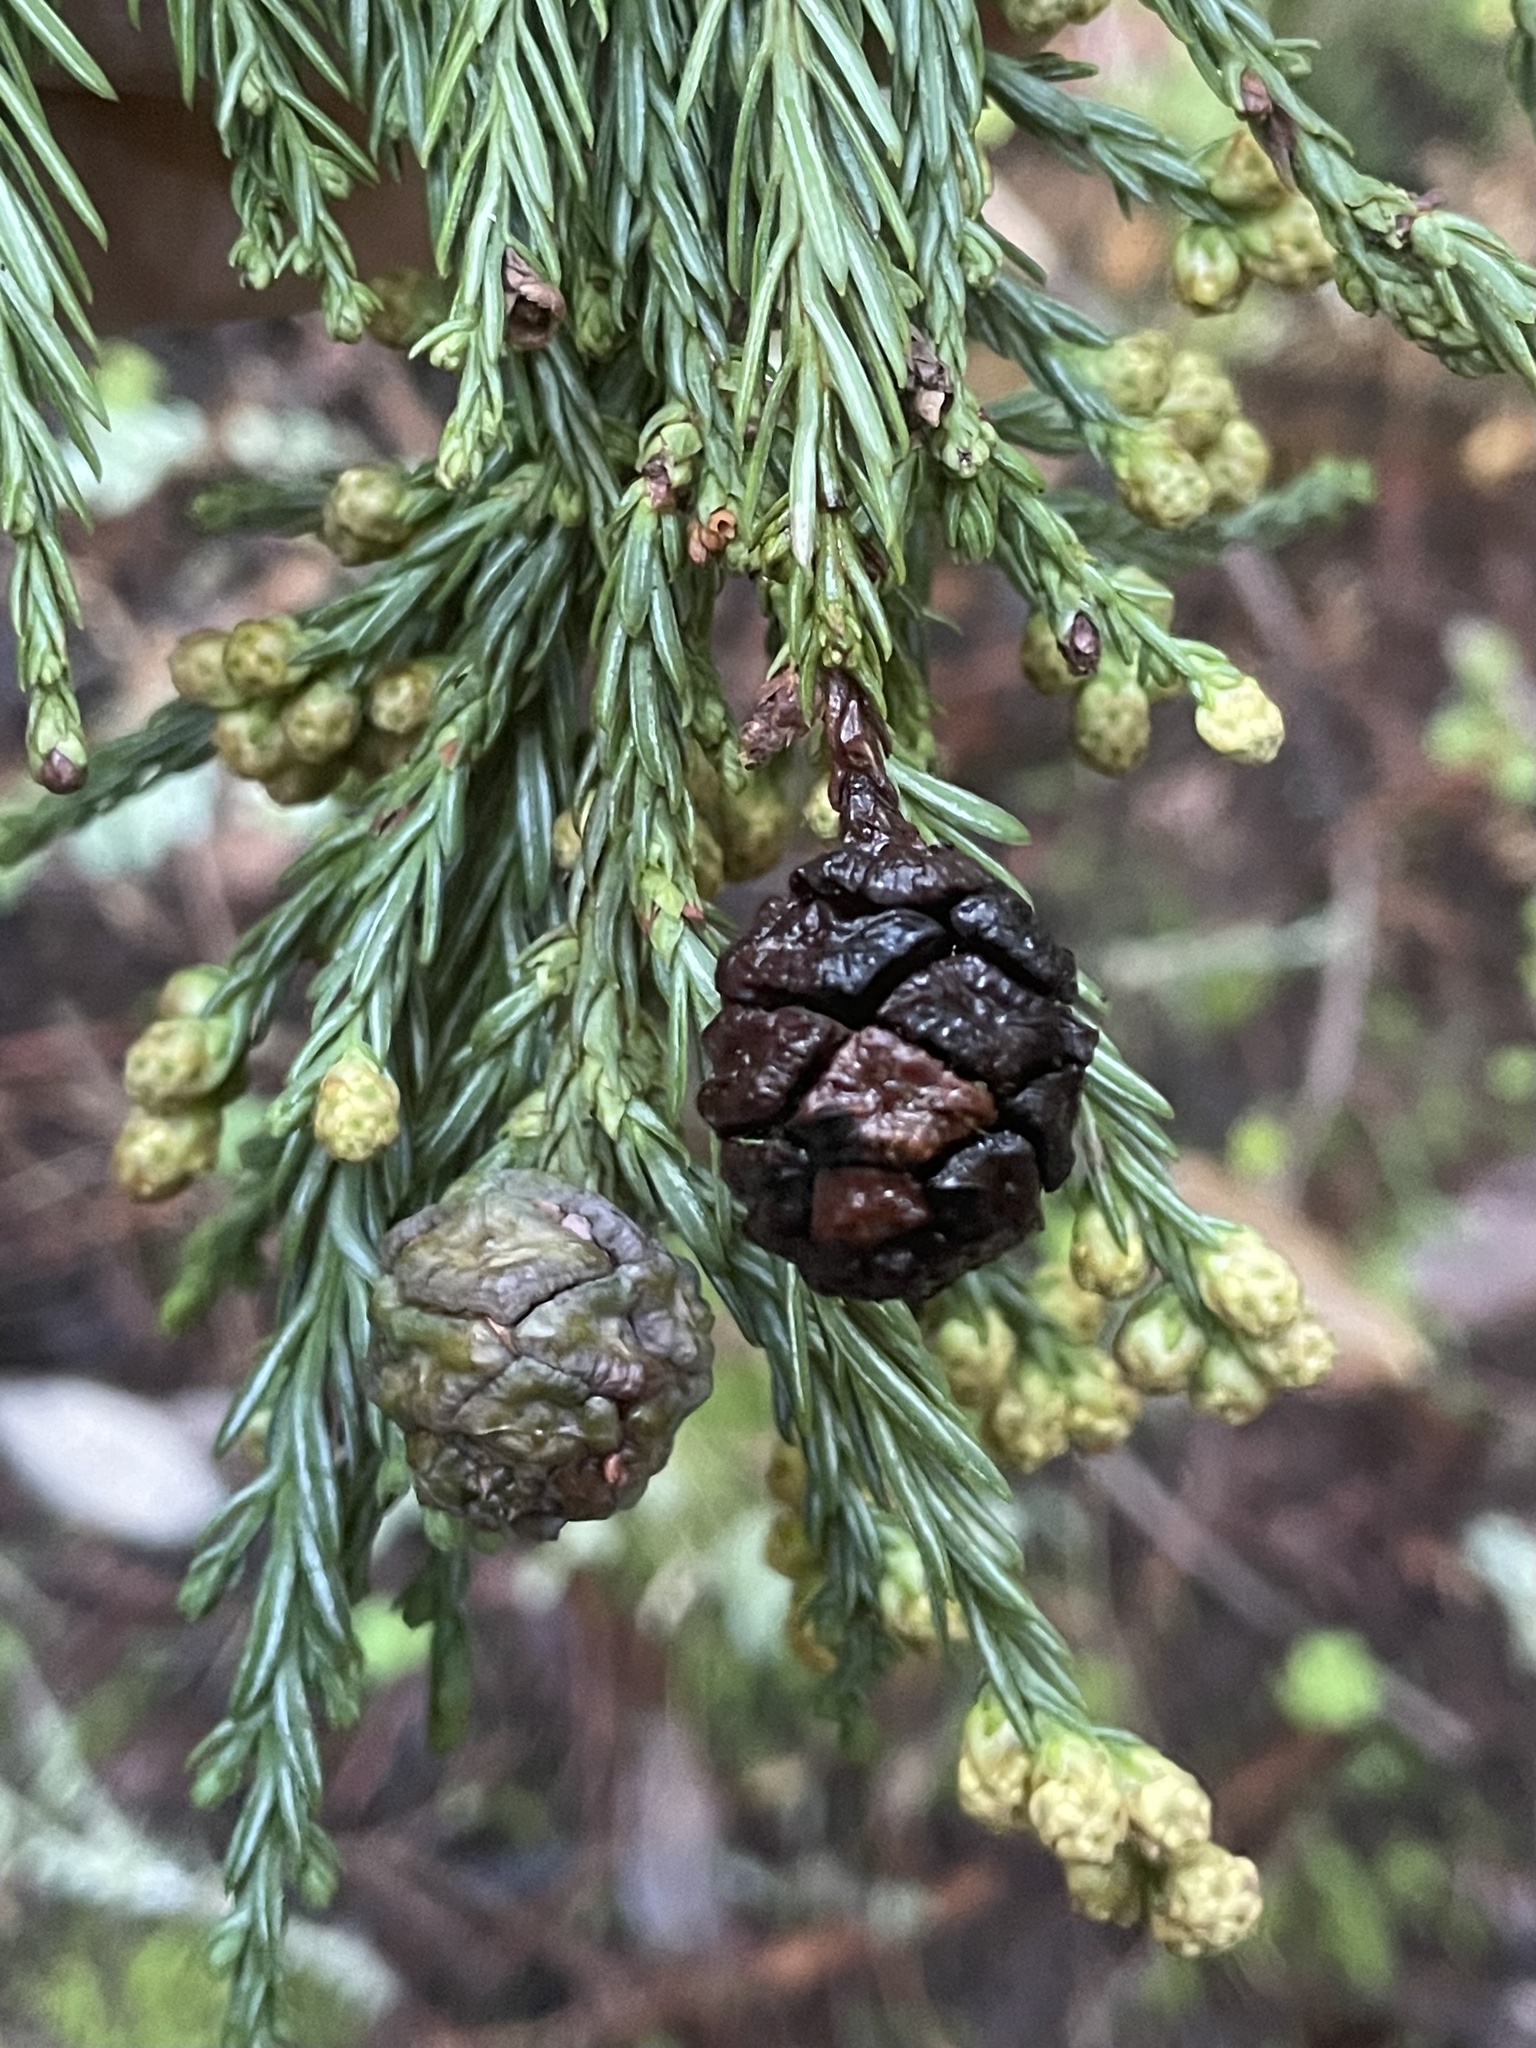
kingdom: Plantae
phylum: Tracheophyta
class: Pinopsida
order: Pinales
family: Cupressaceae
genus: Sequoia
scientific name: Sequoia sempervirens
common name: Coast redwood
